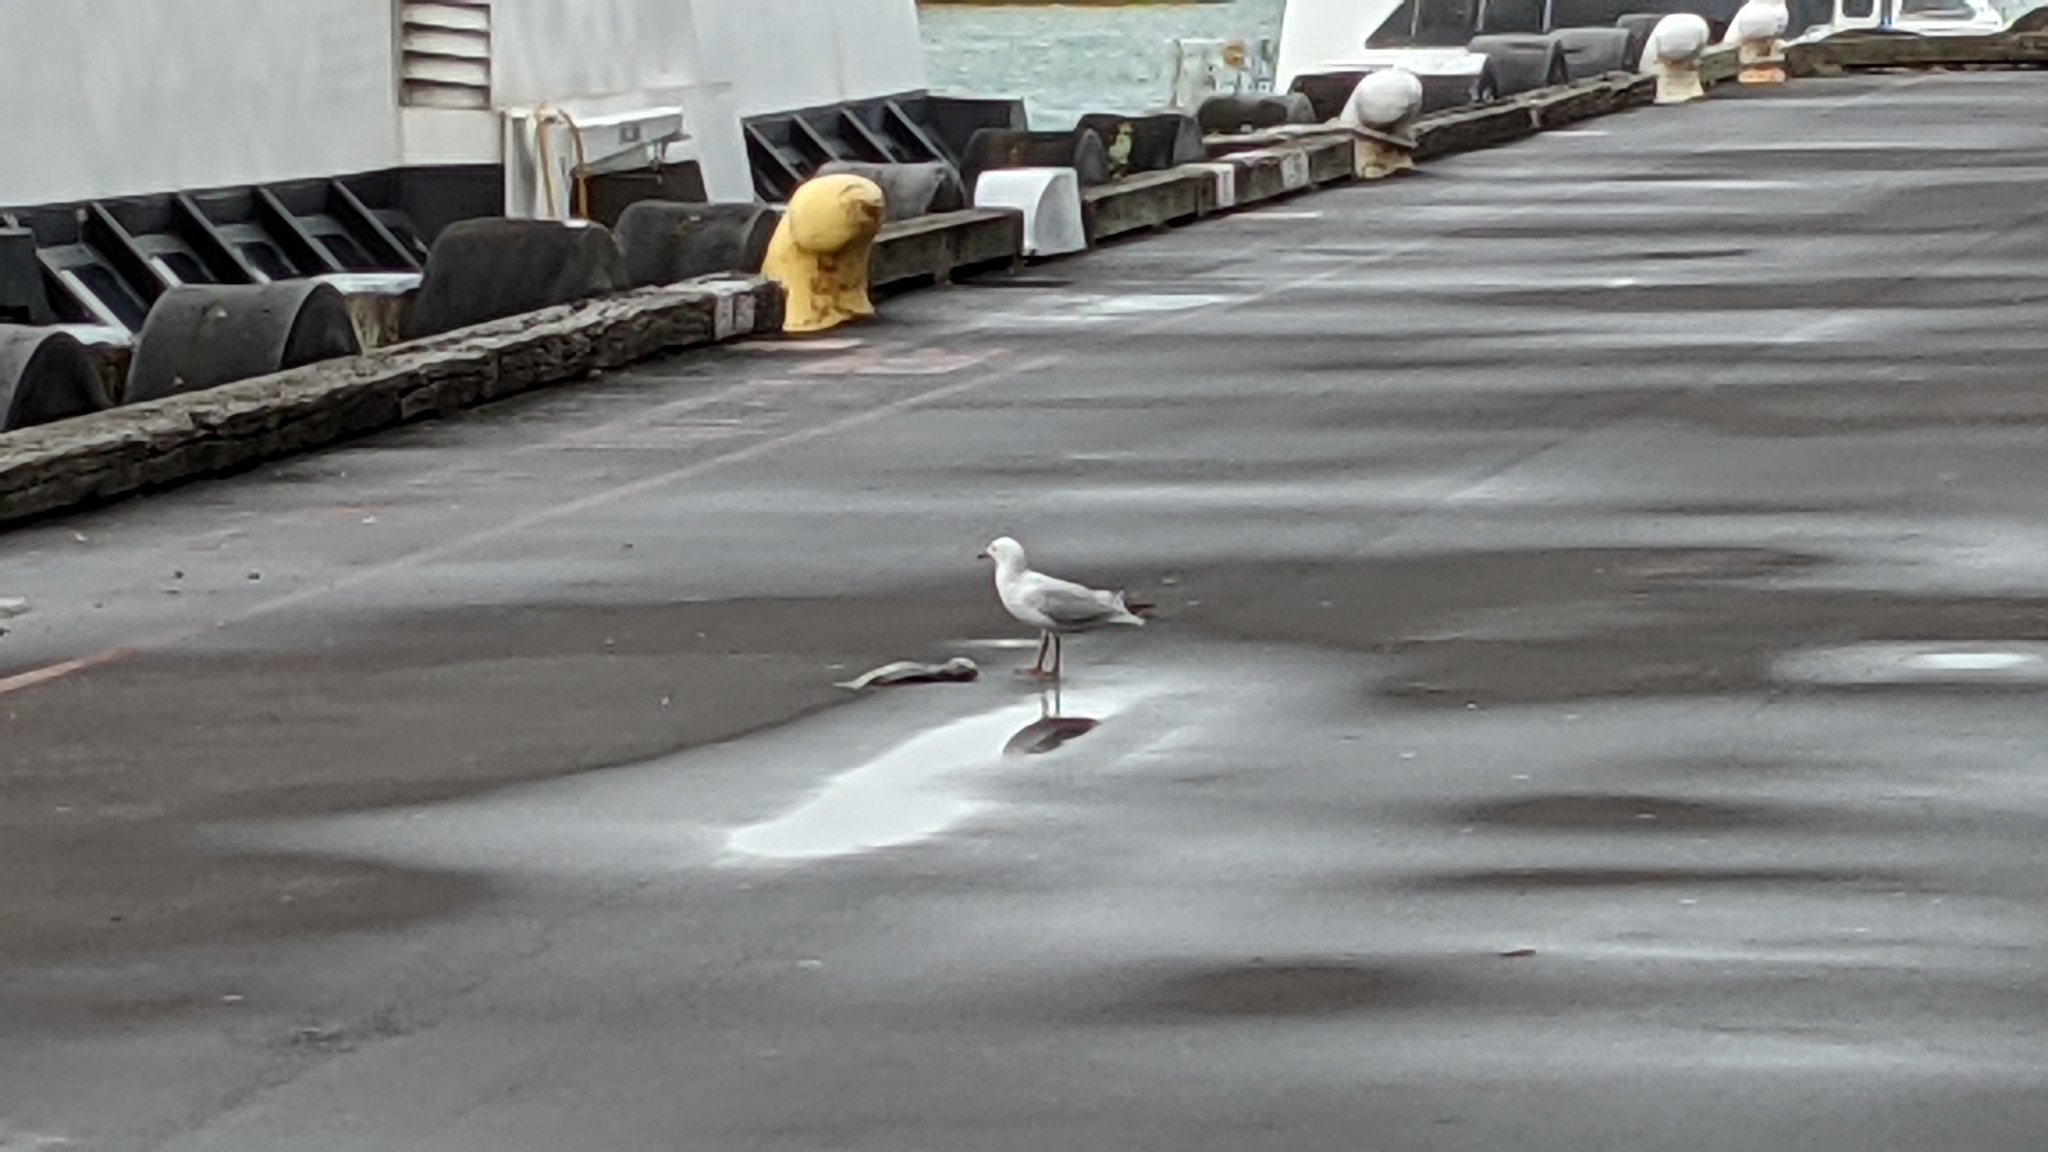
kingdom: Animalia
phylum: Chordata
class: Aves
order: Charadriiformes
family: Laridae
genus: Chroicocephalus
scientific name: Chroicocephalus novaehollandiae
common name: Silver gull
